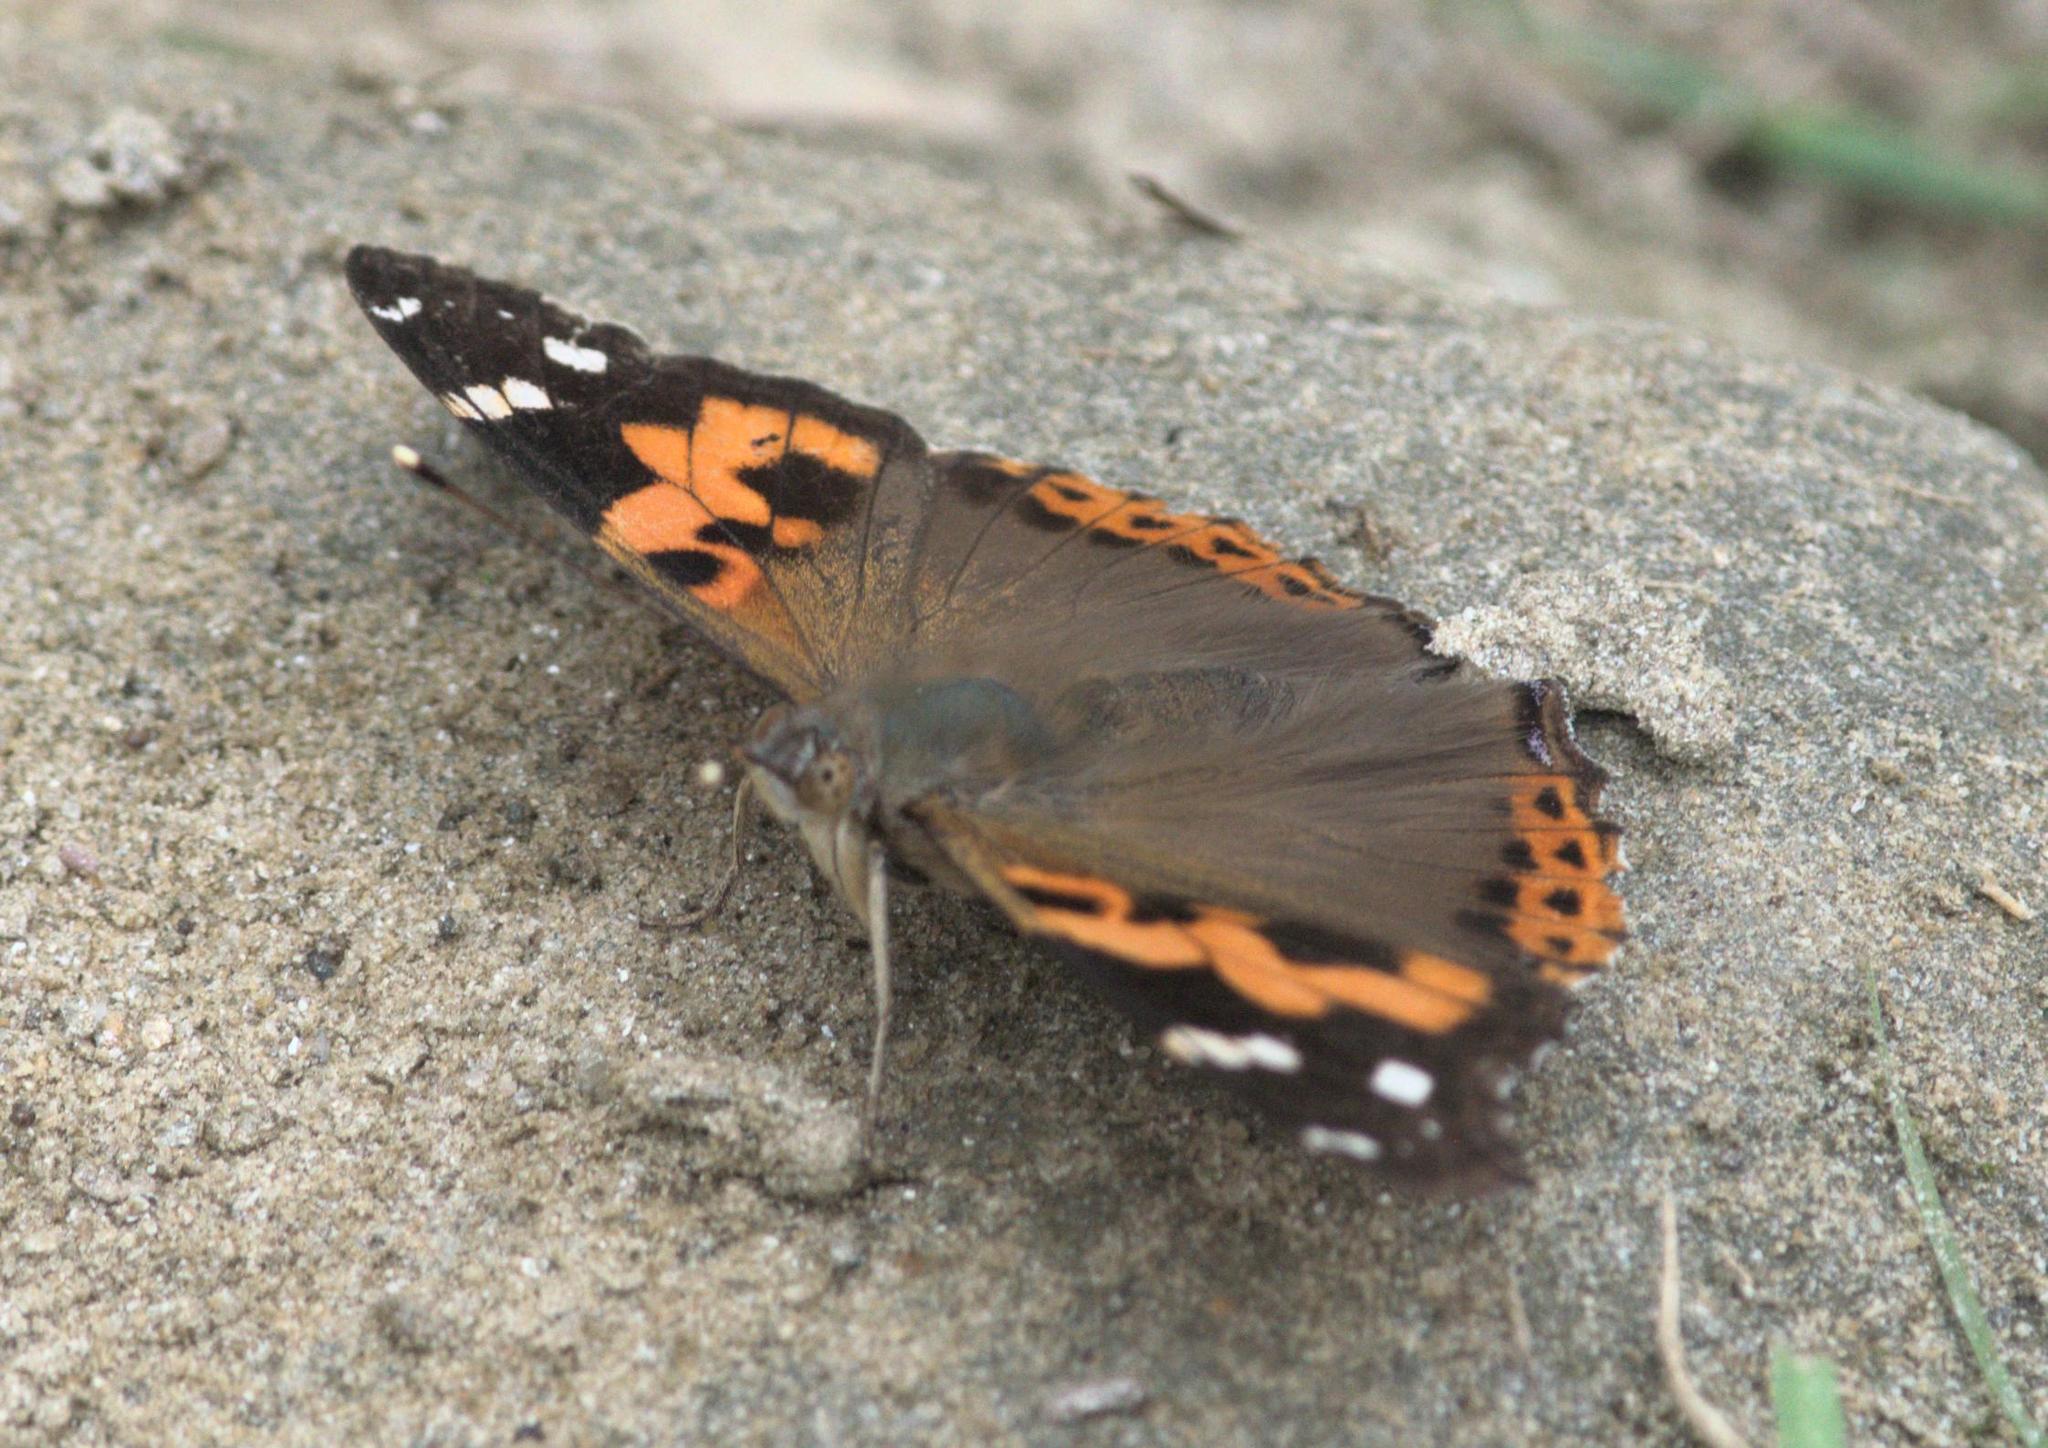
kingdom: Animalia
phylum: Arthropoda
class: Insecta
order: Lepidoptera
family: Nymphalidae
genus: Vanessa
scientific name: Vanessa indica
